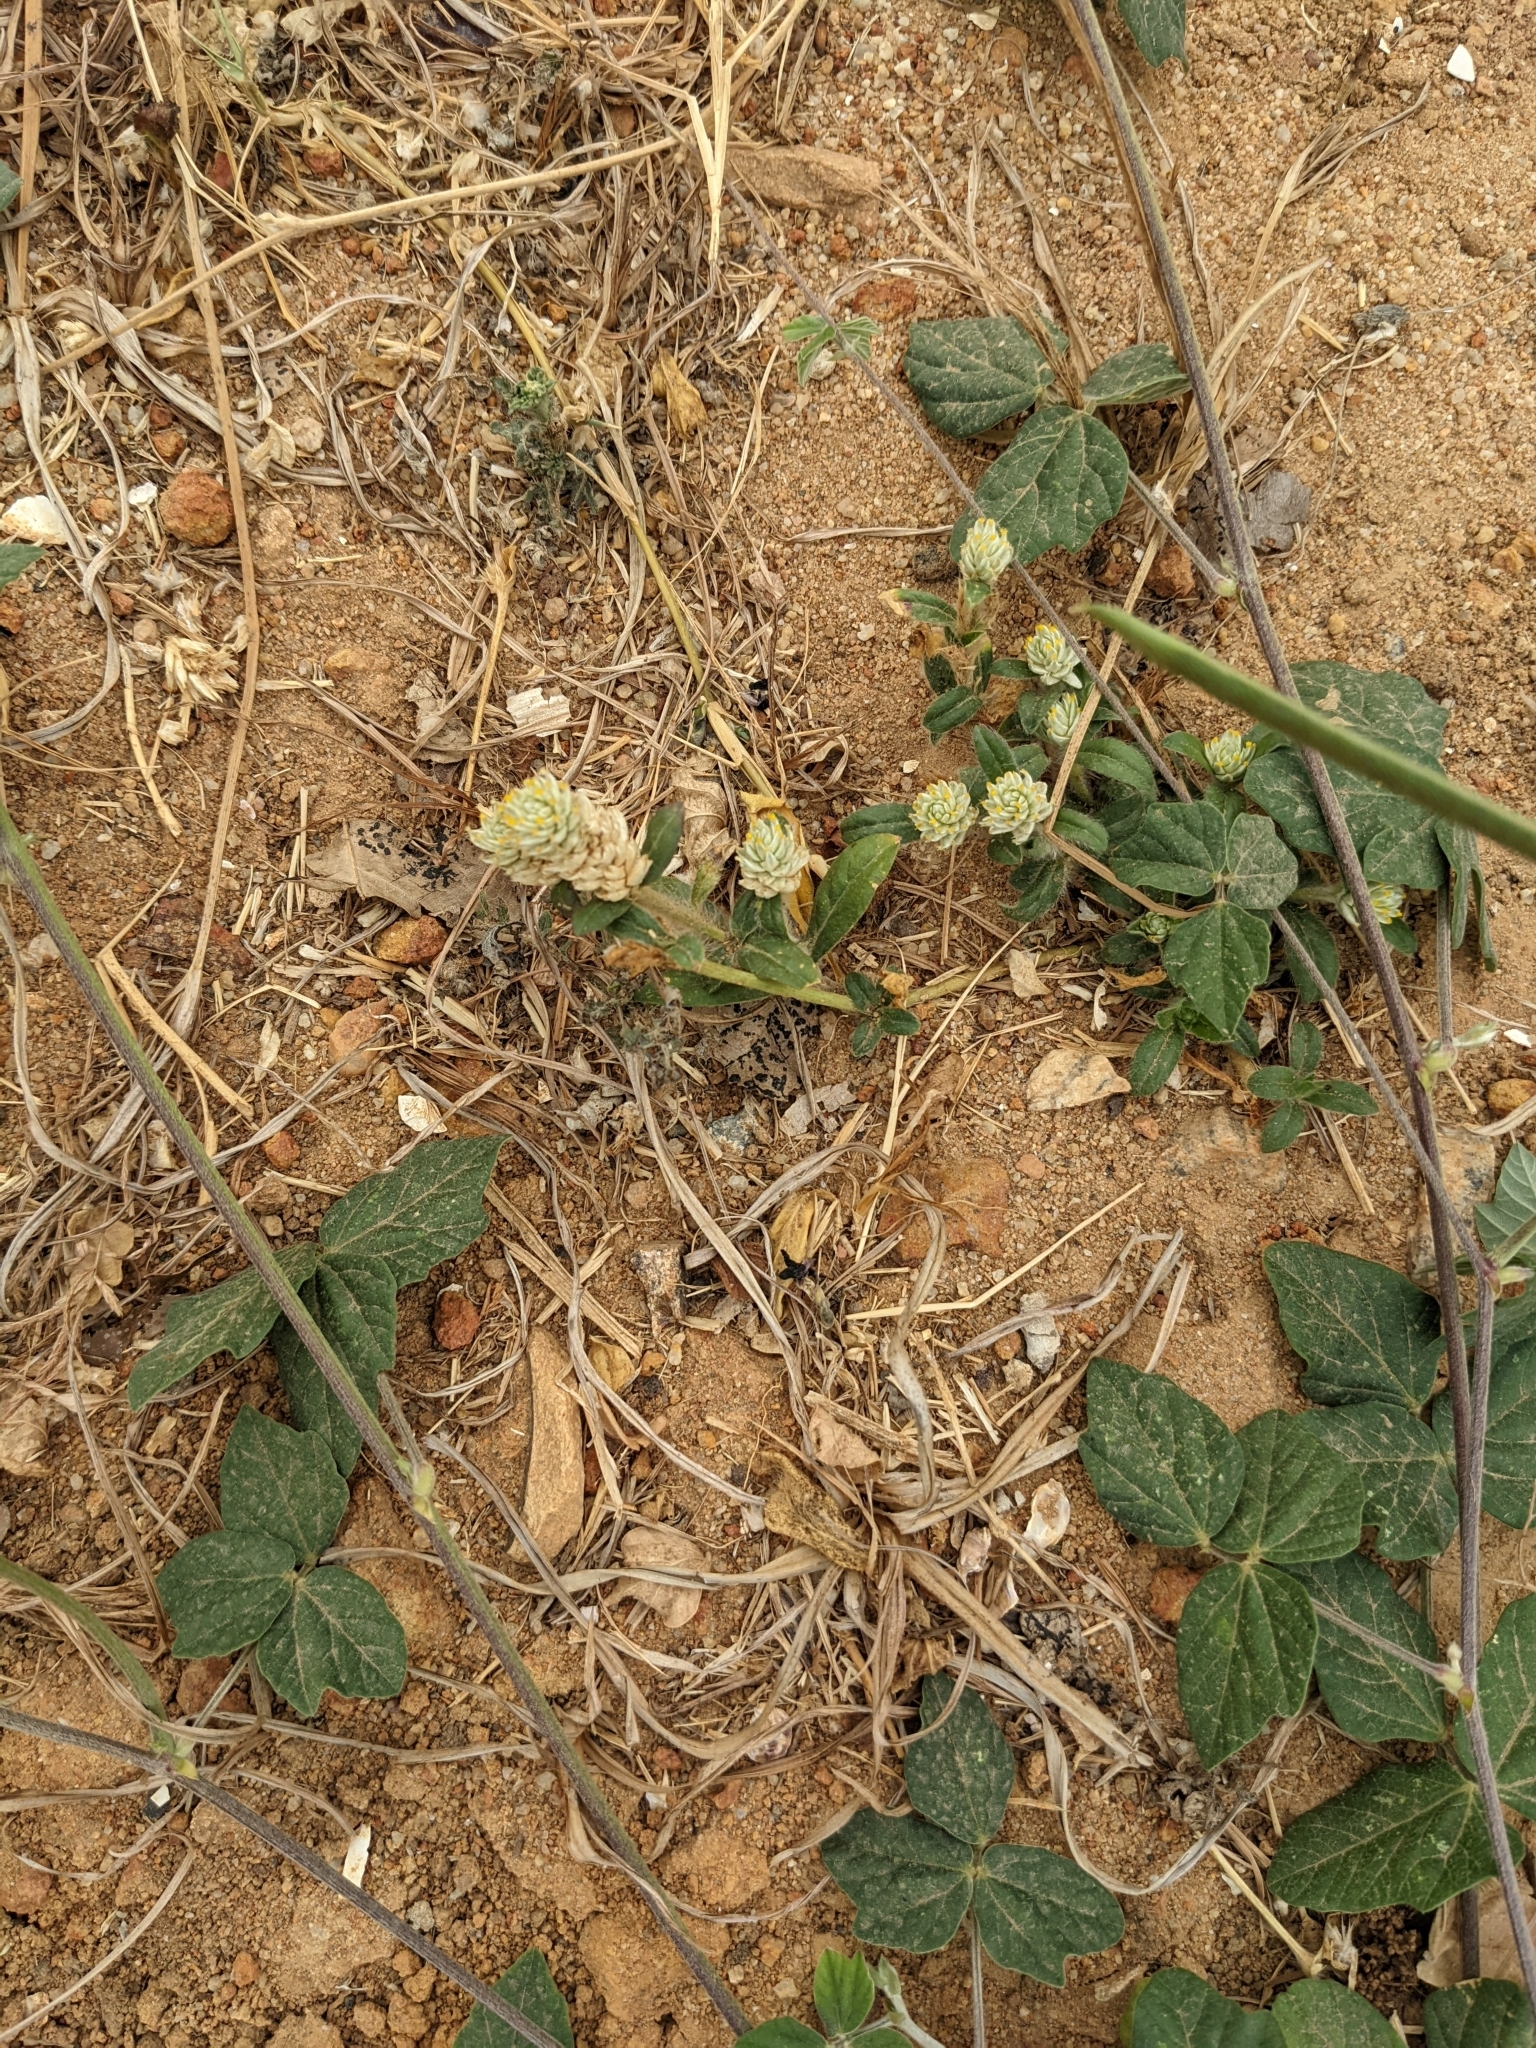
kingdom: Plantae
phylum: Tracheophyta
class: Magnoliopsida
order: Caryophyllales
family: Amaranthaceae
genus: Gomphrena
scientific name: Gomphrena celosioides
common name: Gomphrena-weed
